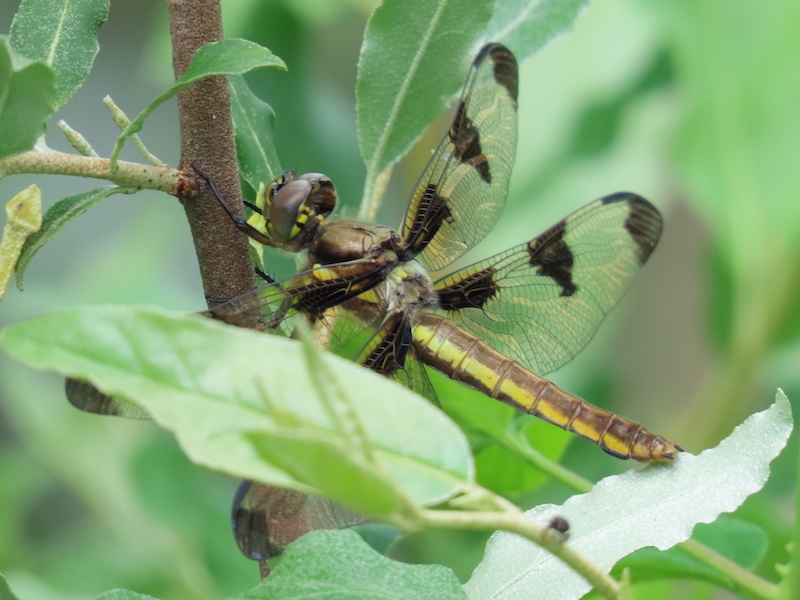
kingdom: Animalia
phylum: Arthropoda
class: Insecta
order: Odonata
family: Libellulidae
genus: Libellula
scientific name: Libellula pulchella
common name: Twelve-spotted skimmer
